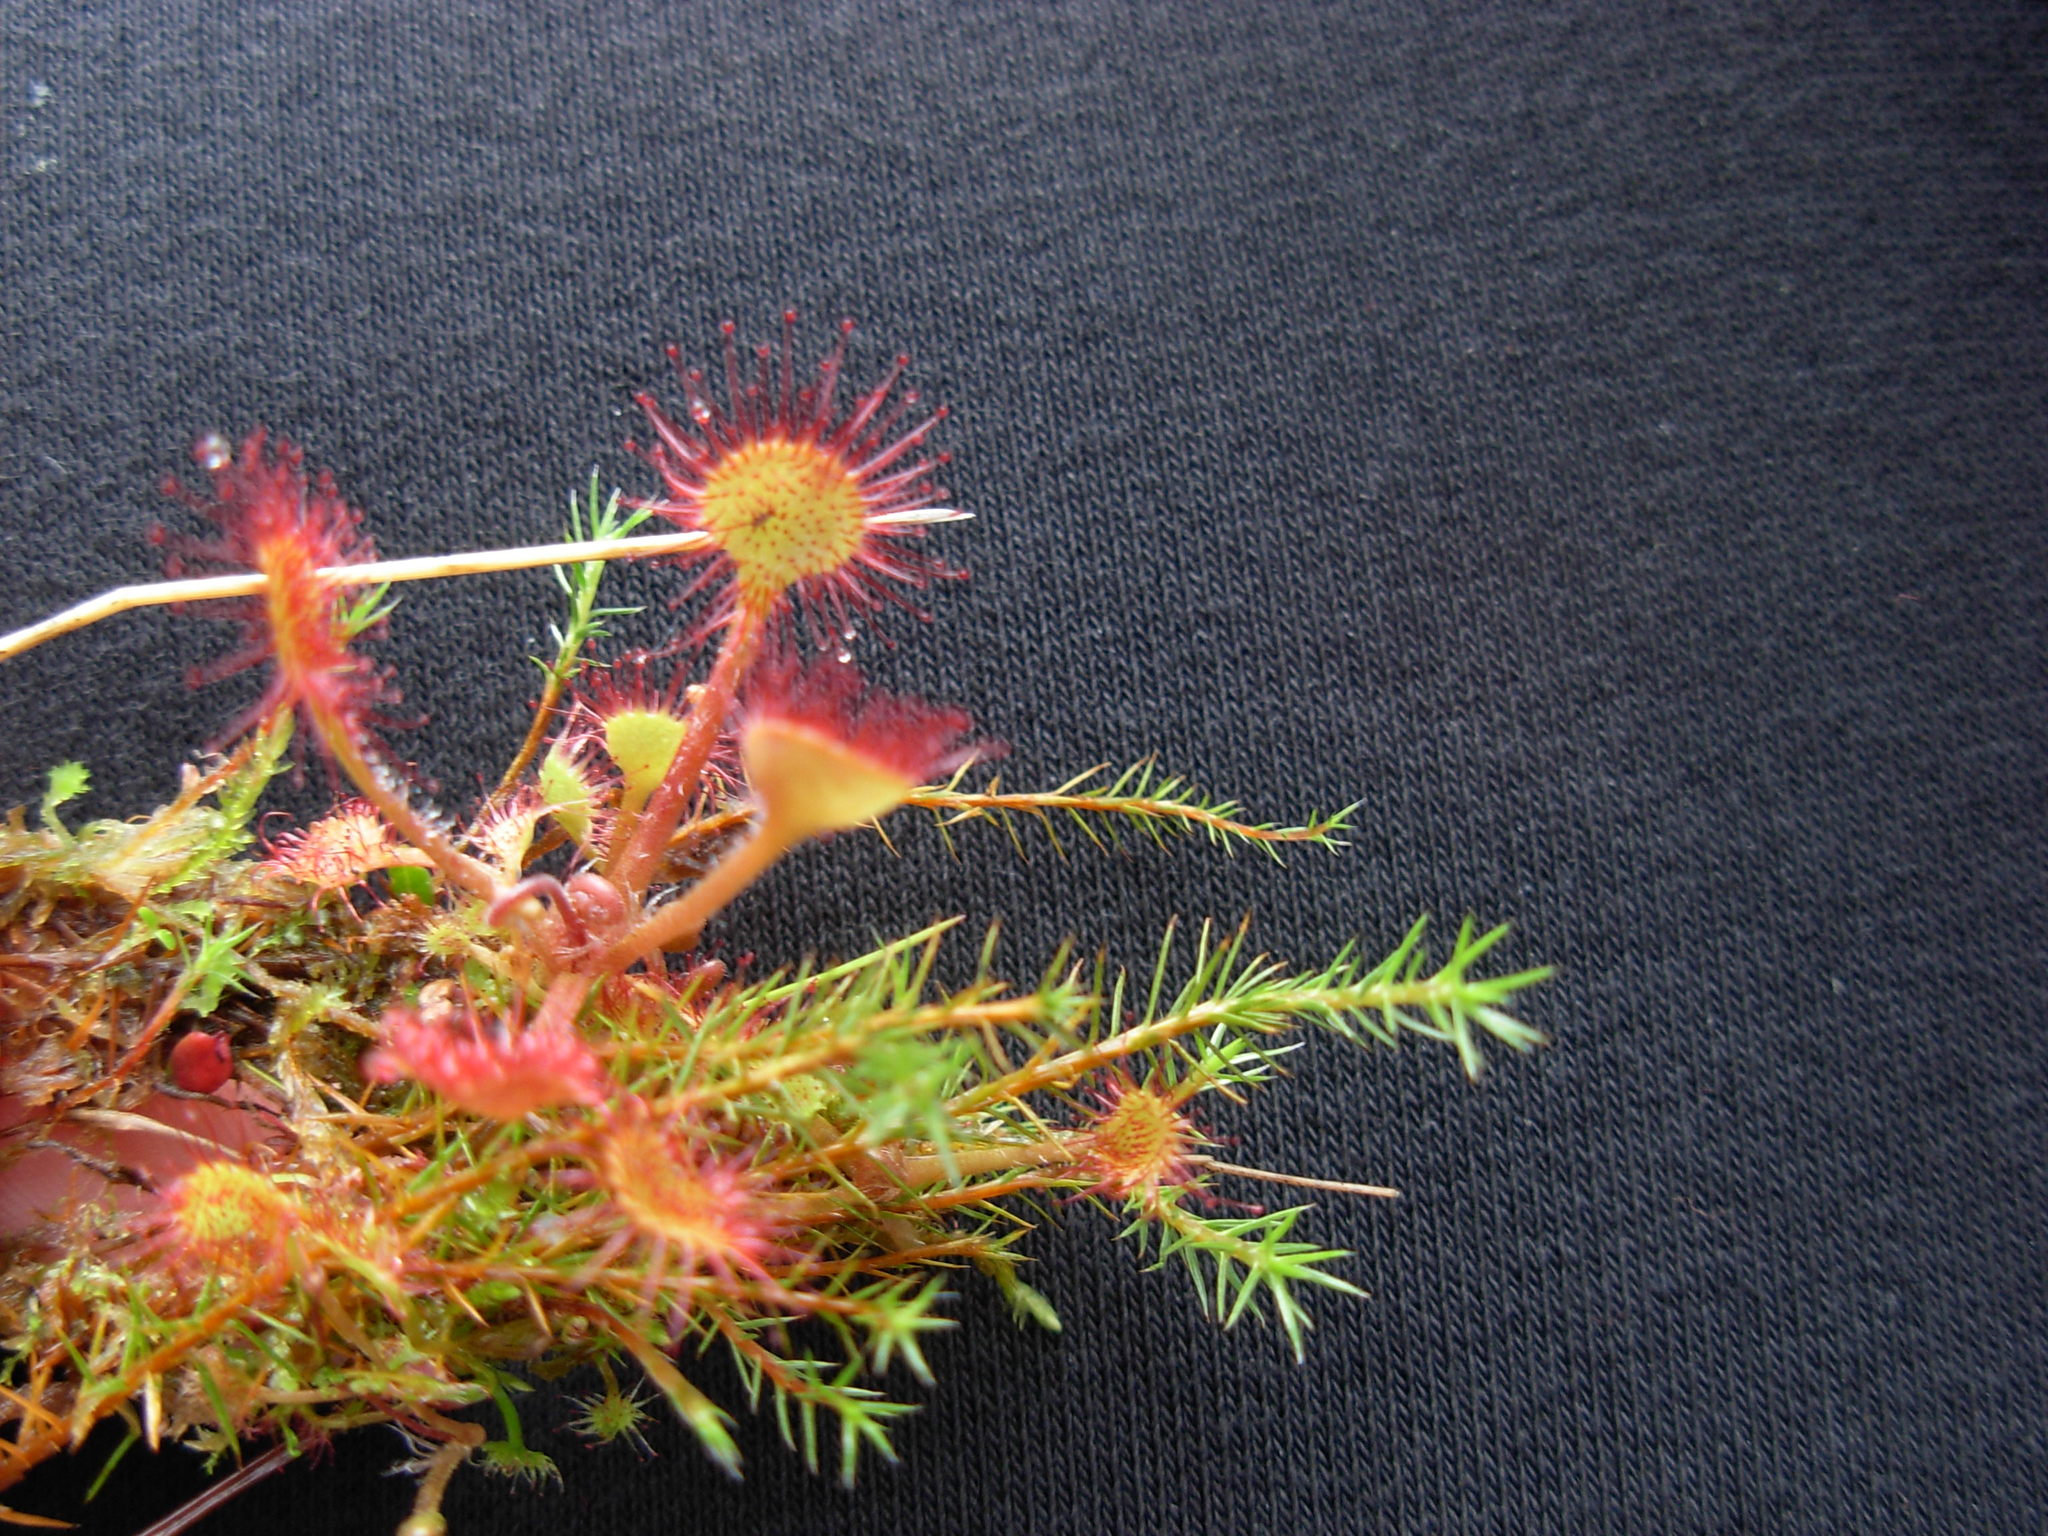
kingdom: Plantae
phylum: Tracheophyta
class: Magnoliopsida
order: Caryophyllales
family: Droseraceae
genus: Drosera
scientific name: Drosera rotundifolia
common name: Round-leaved sundew
